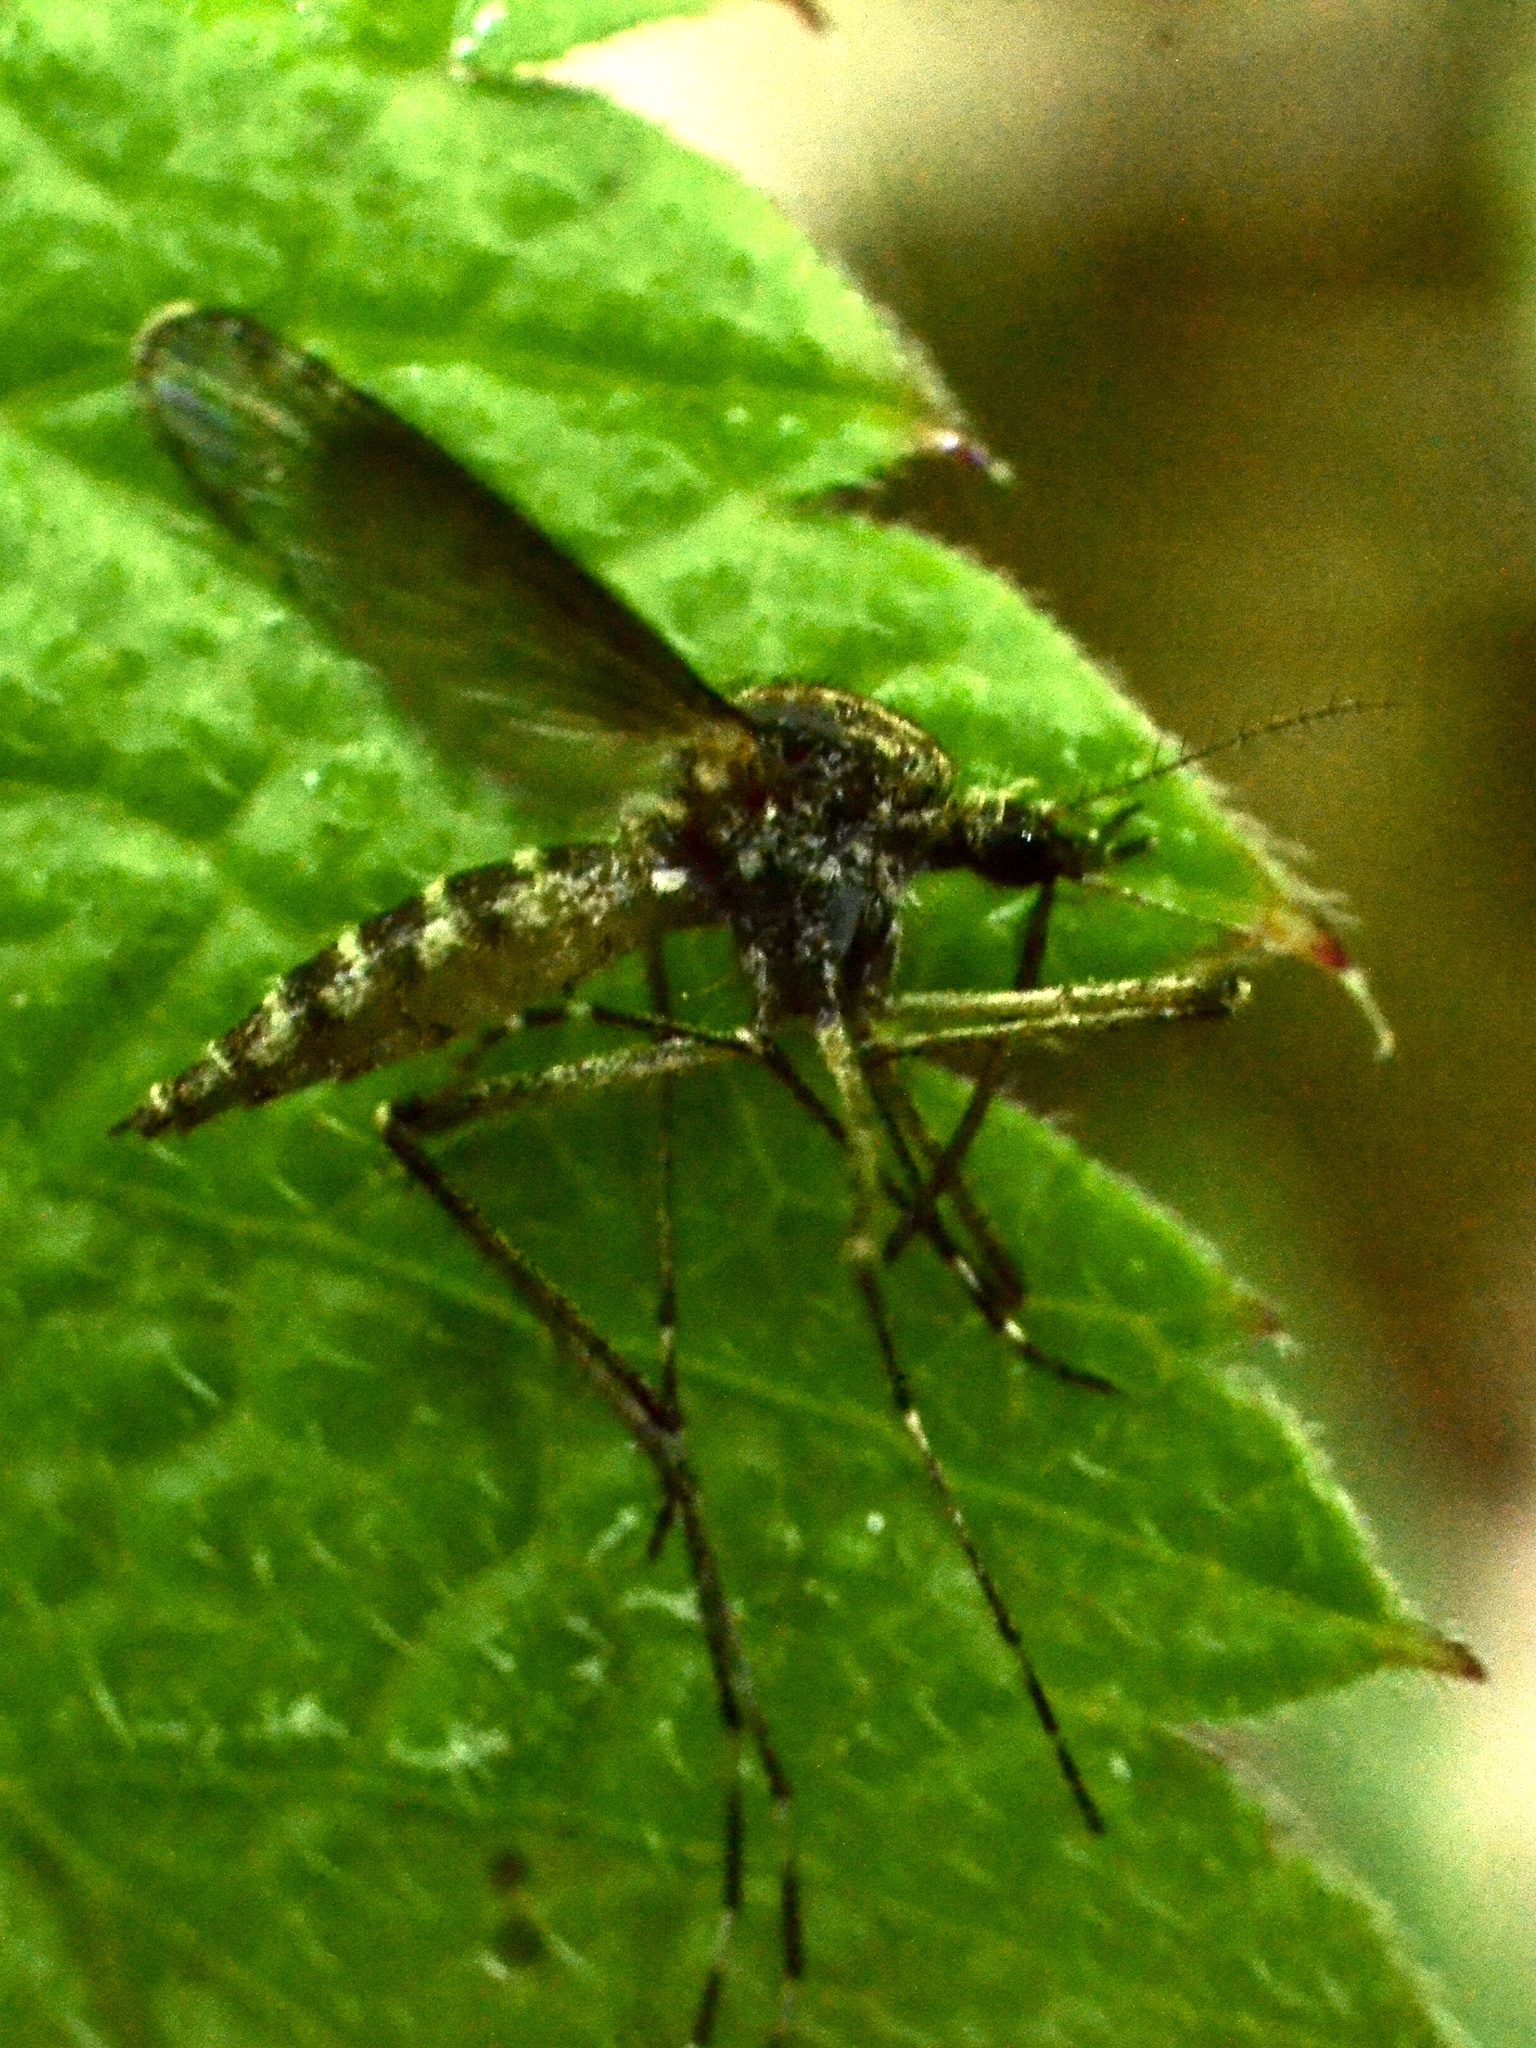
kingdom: Animalia
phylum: Arthropoda
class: Insecta
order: Diptera
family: Culicidae
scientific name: Culicidae
